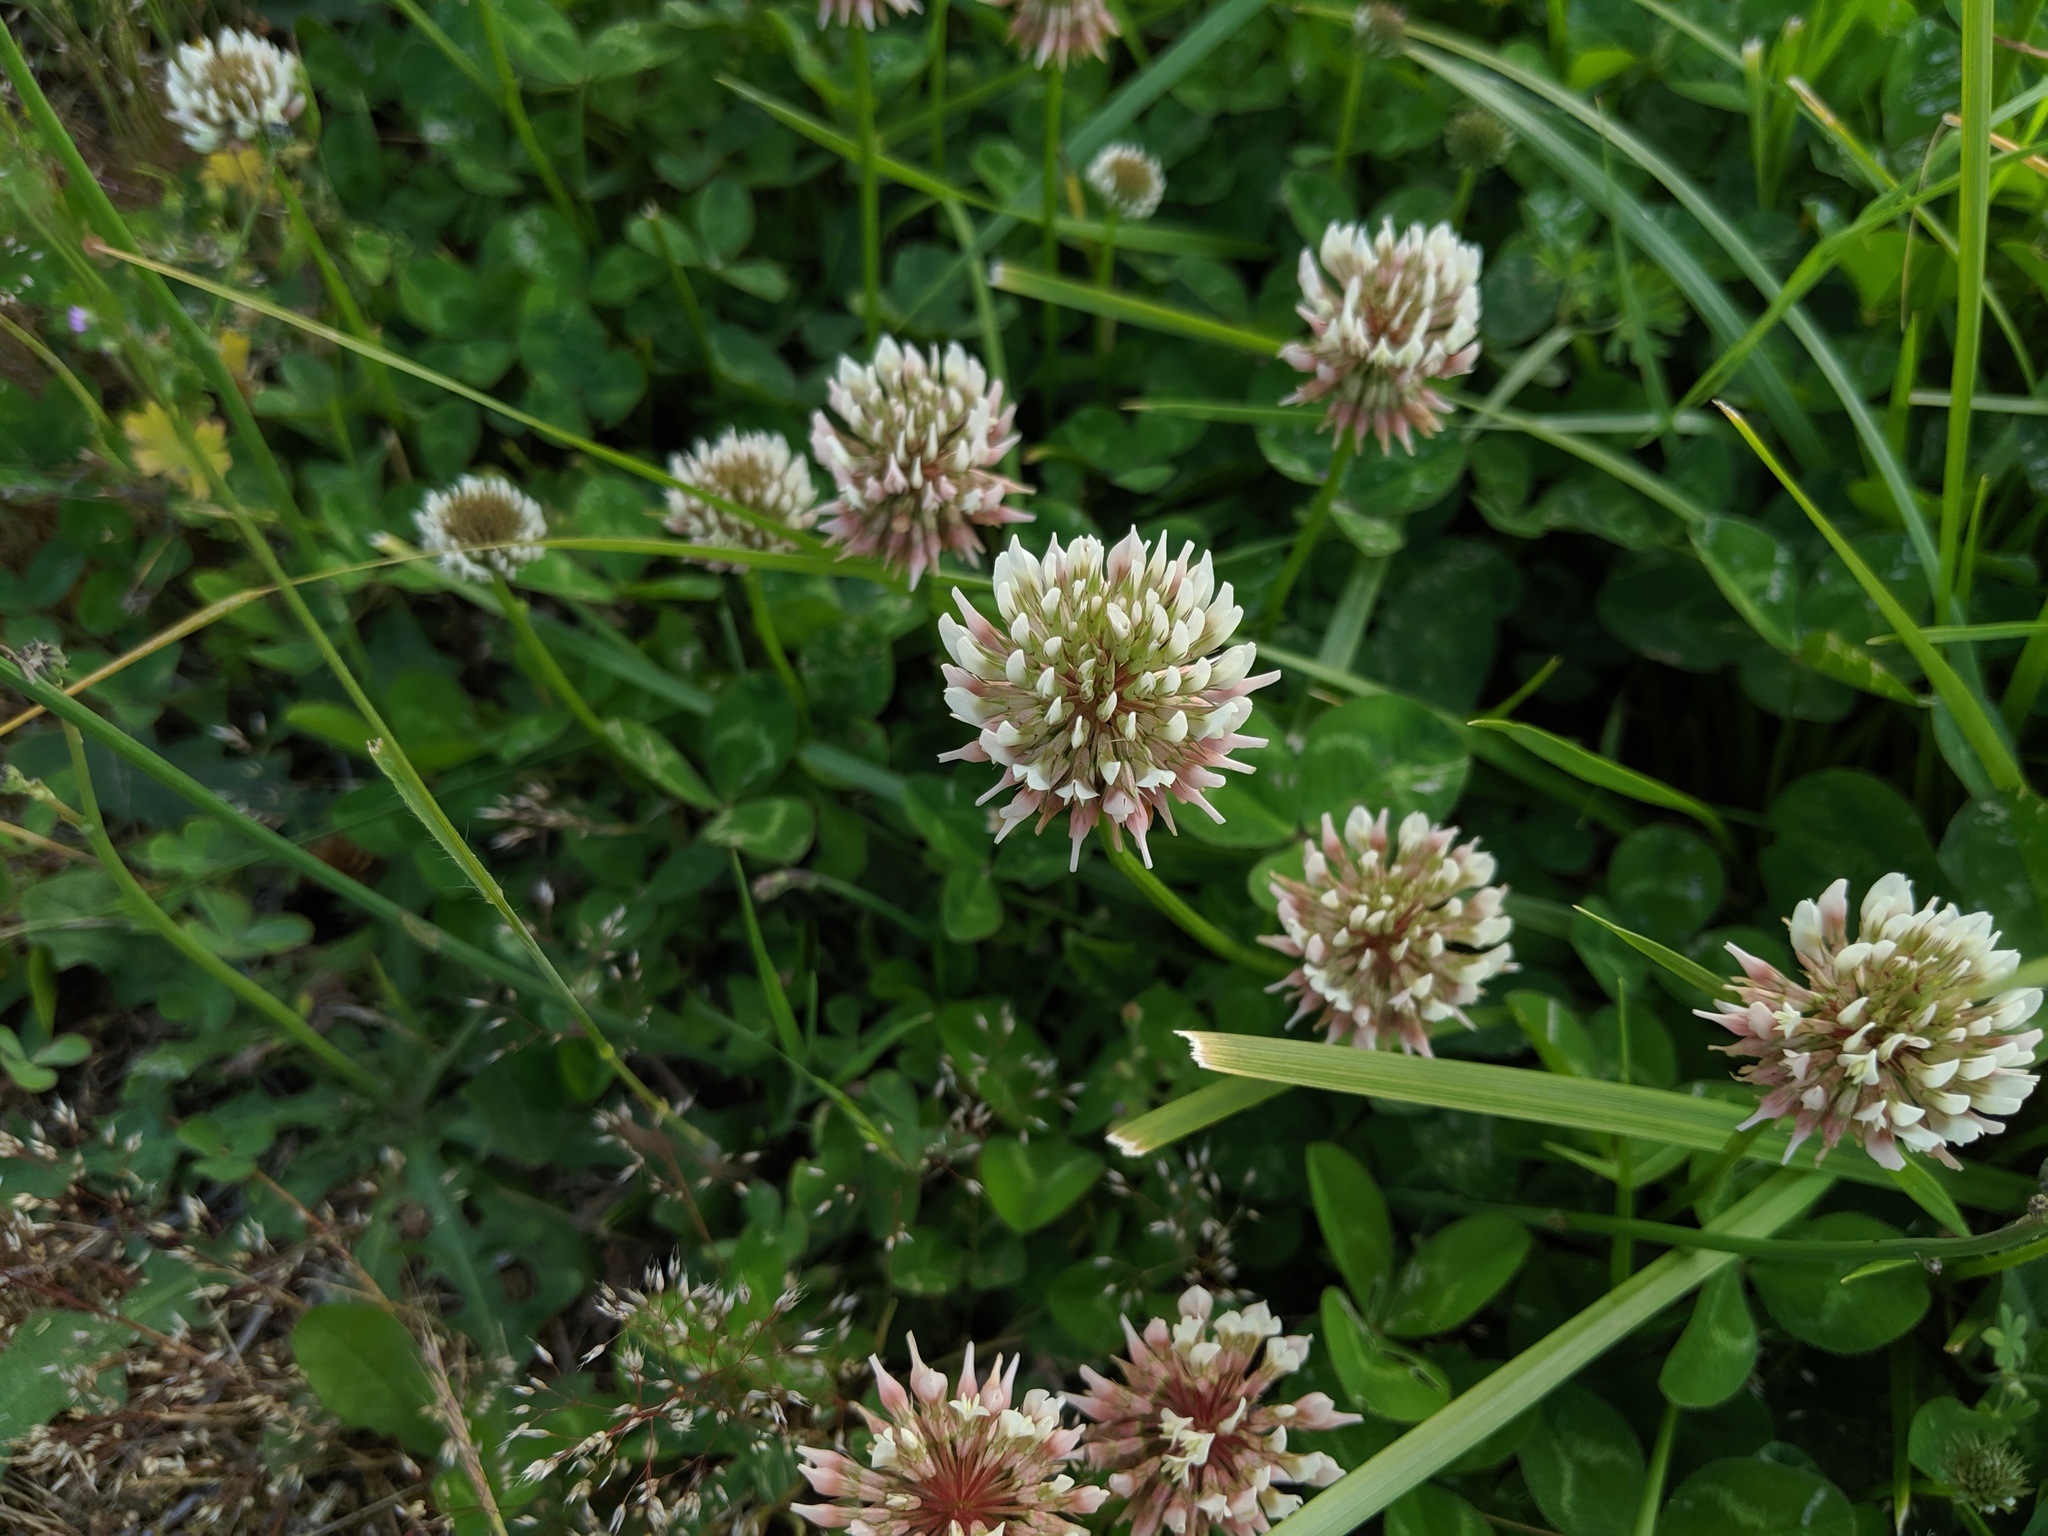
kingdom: Plantae
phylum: Tracheophyta
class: Magnoliopsida
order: Fabales
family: Fabaceae
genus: Trifolium
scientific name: Trifolium repens
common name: White clover
